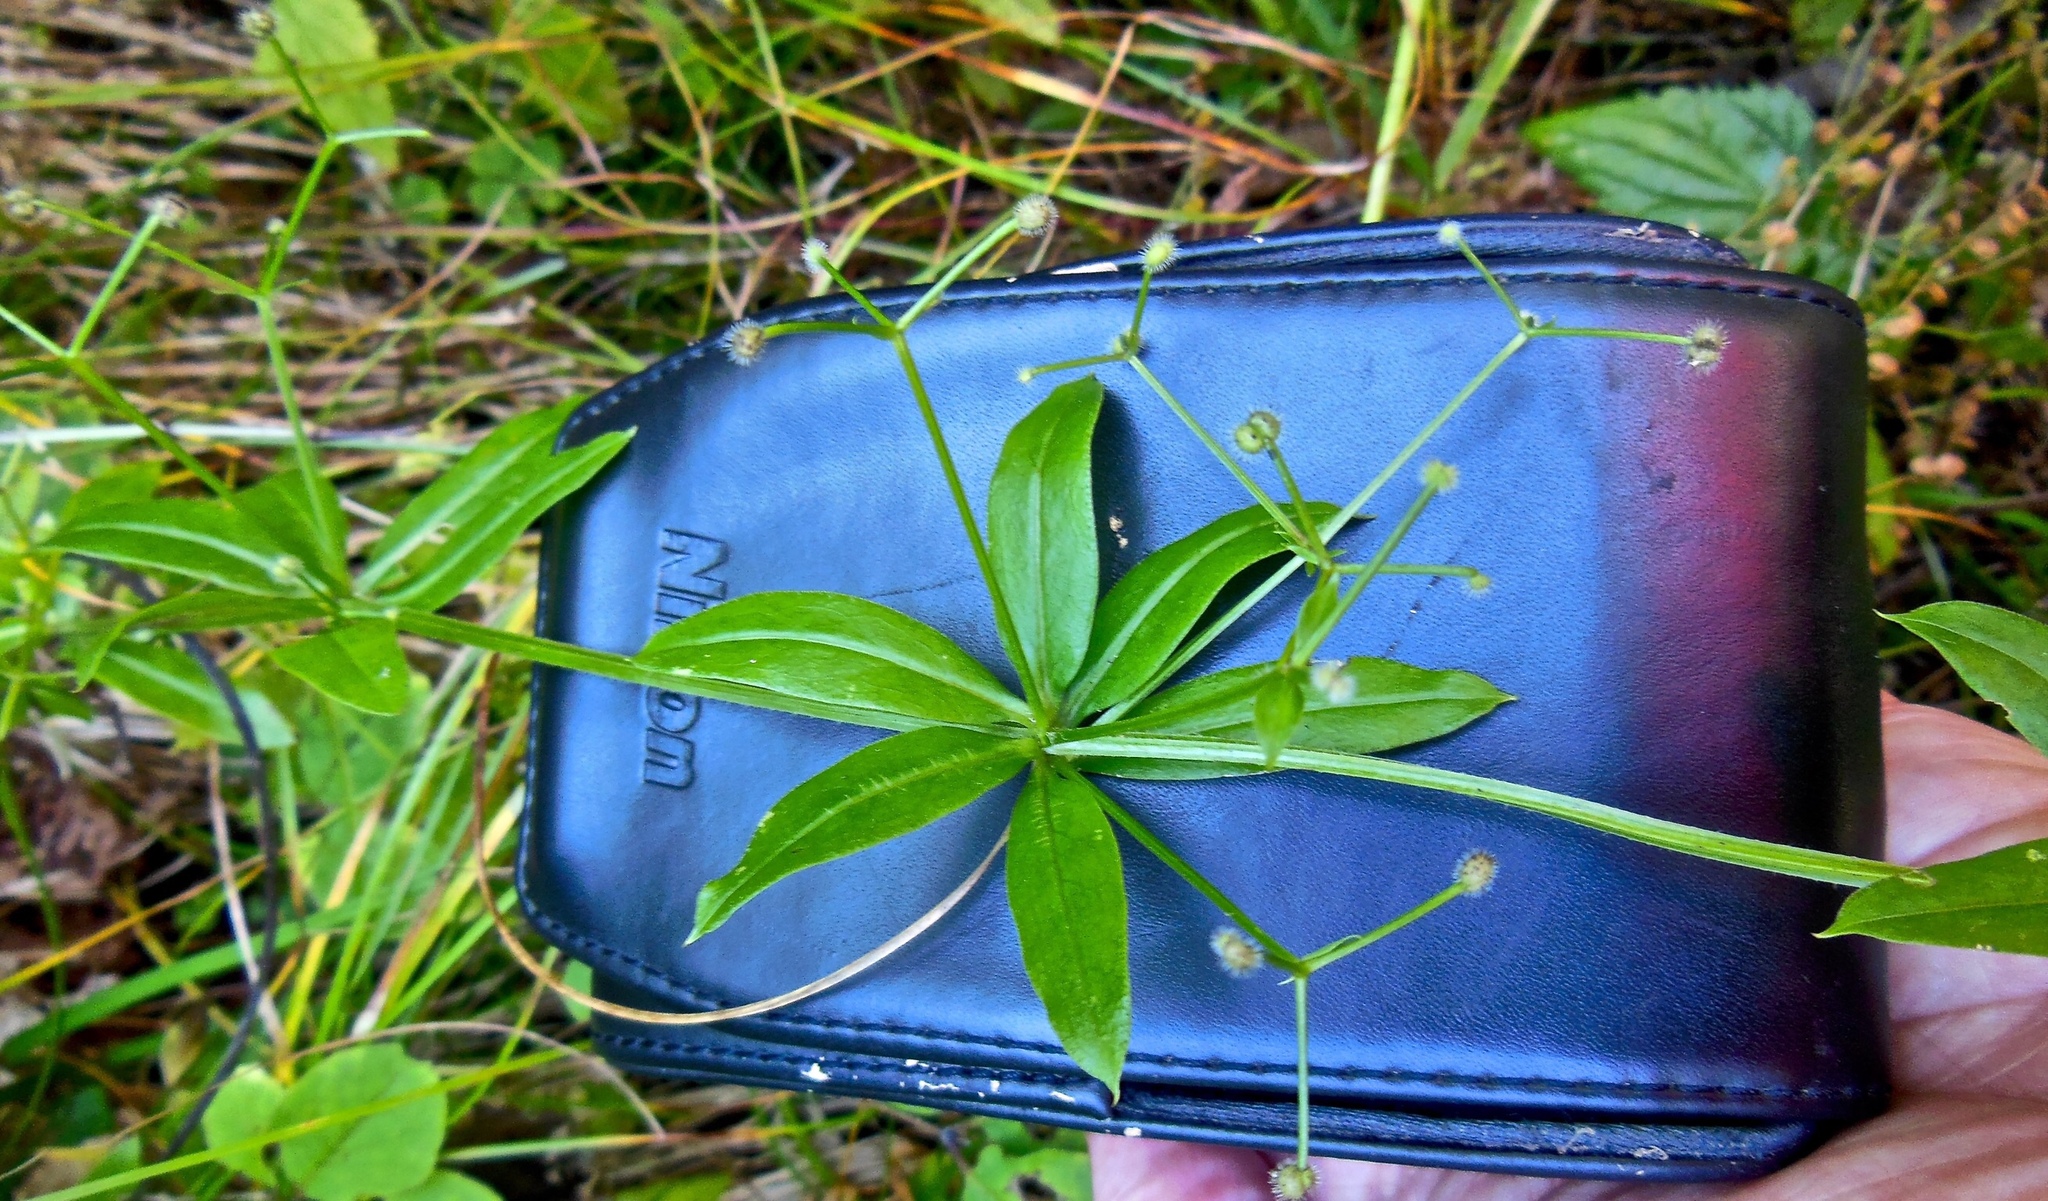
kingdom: Plantae
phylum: Tracheophyta
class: Magnoliopsida
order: Gentianales
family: Rubiaceae
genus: Galium
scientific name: Galium triflorum
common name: Fragrant bedstraw
